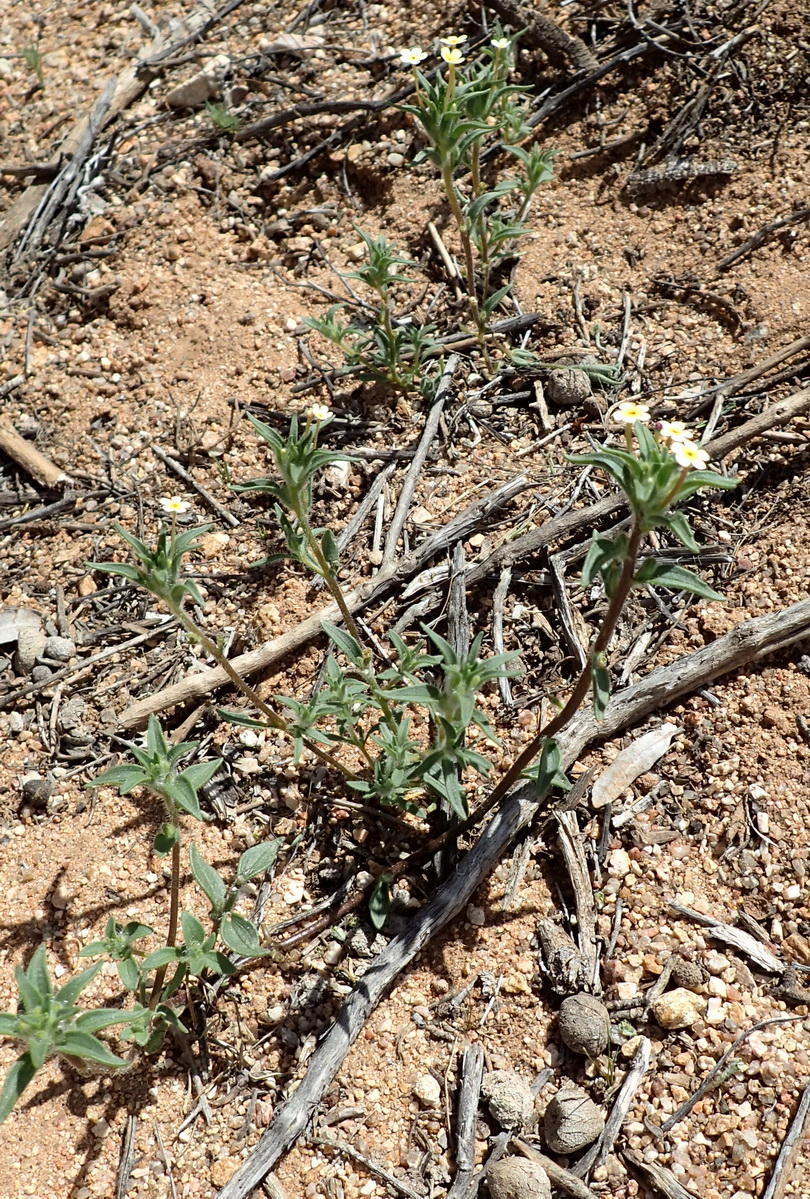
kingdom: Plantae
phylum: Tracheophyta
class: Magnoliopsida
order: Lamiales
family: Scrophulariaceae
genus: Zaluzianskya
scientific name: Zaluzianskya benthamiana
